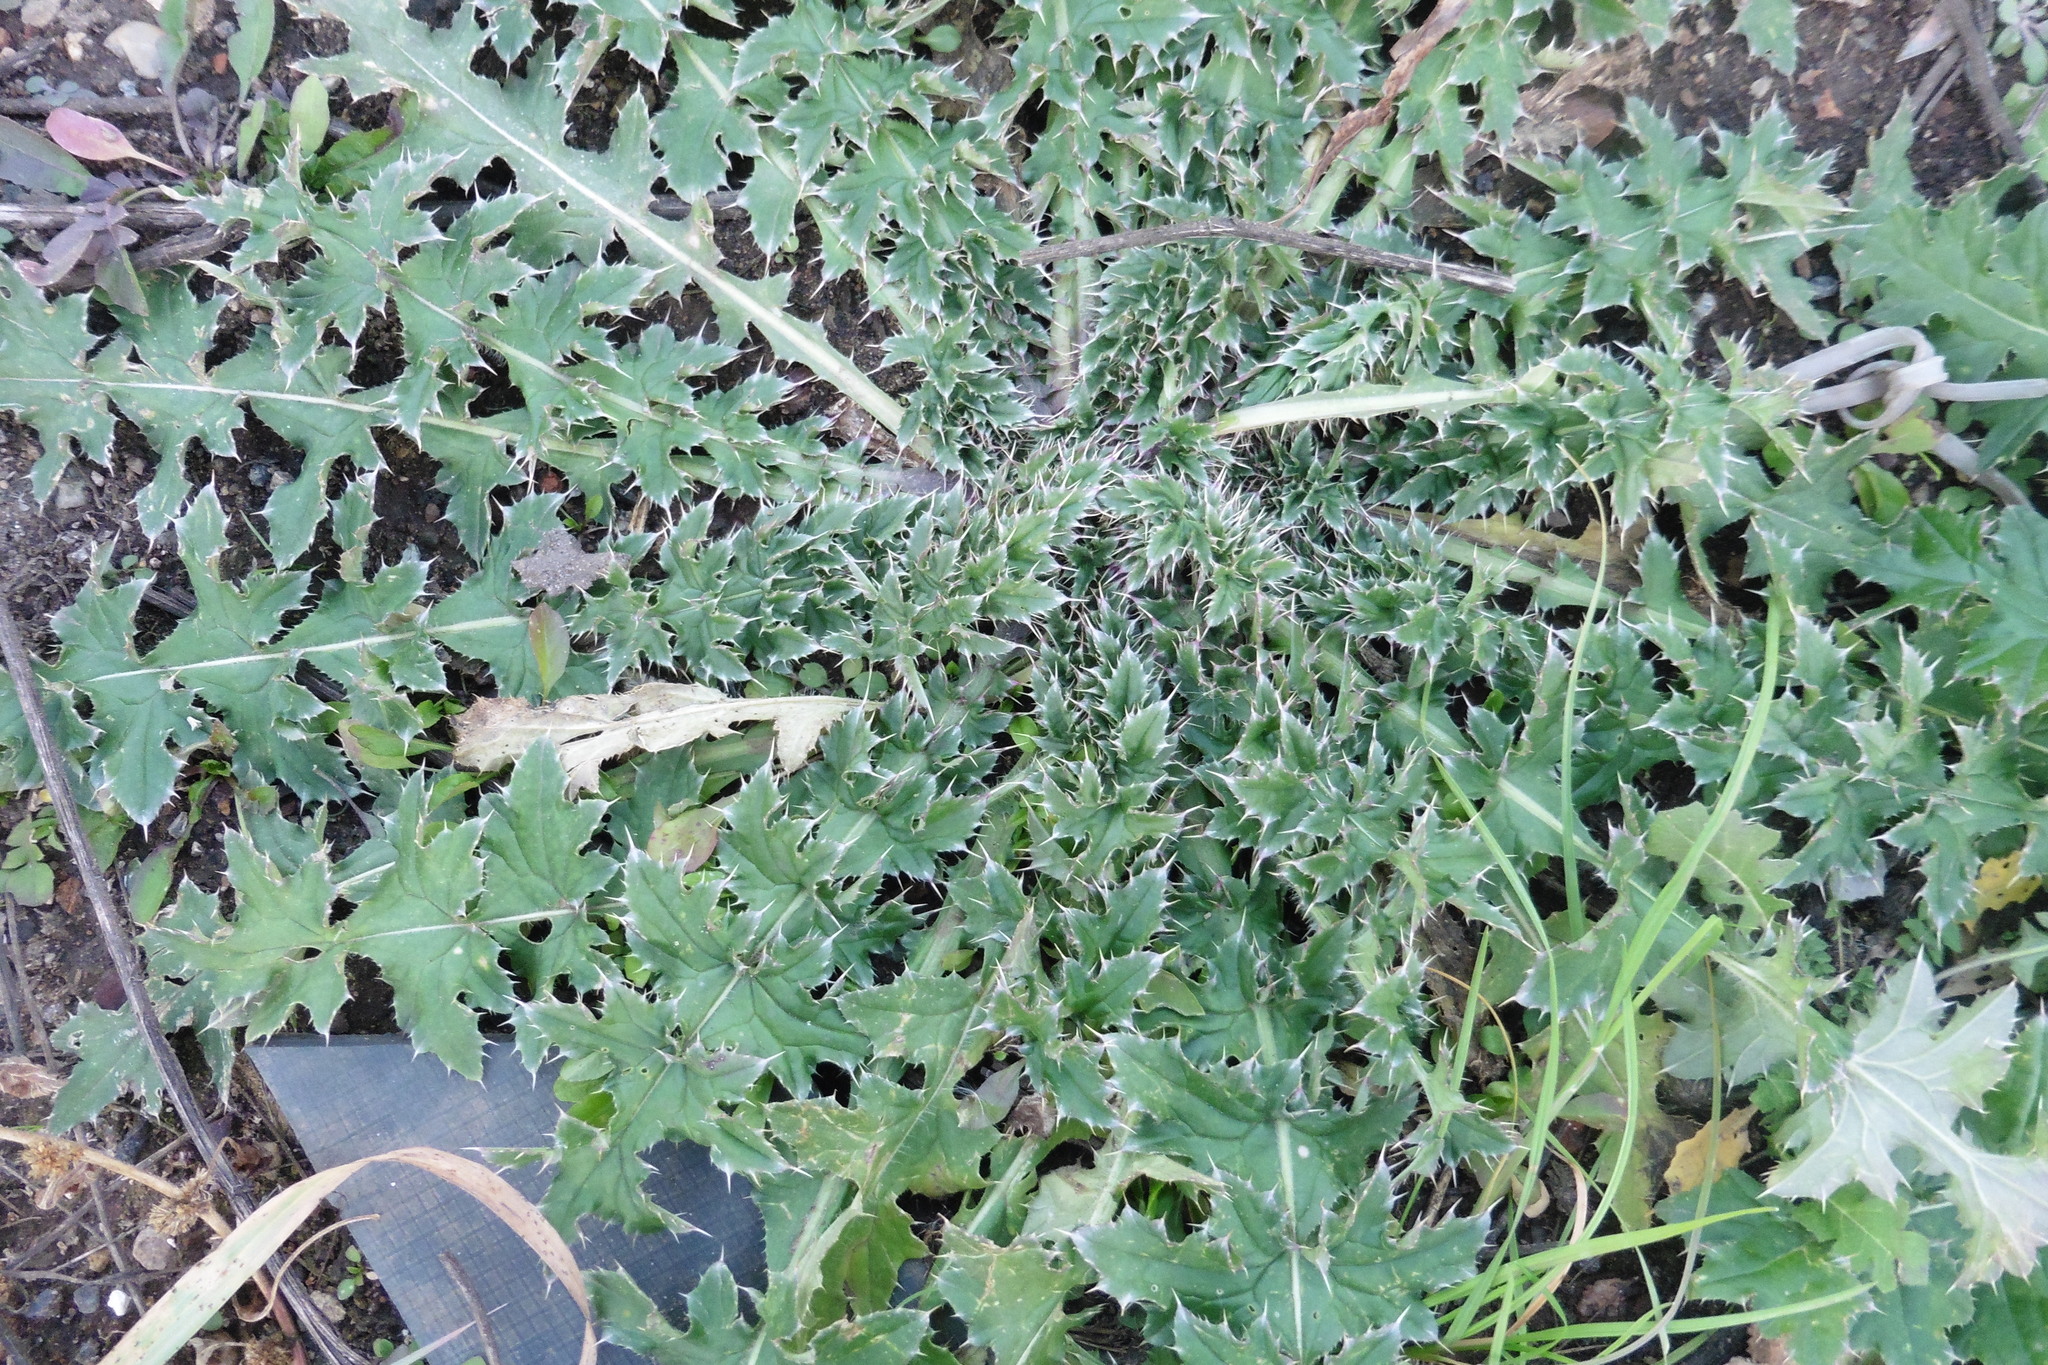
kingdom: Plantae
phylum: Tracheophyta
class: Magnoliopsida
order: Asterales
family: Asteraceae
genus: Carduus
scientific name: Carduus acanthoides
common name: Plumeless thistle
